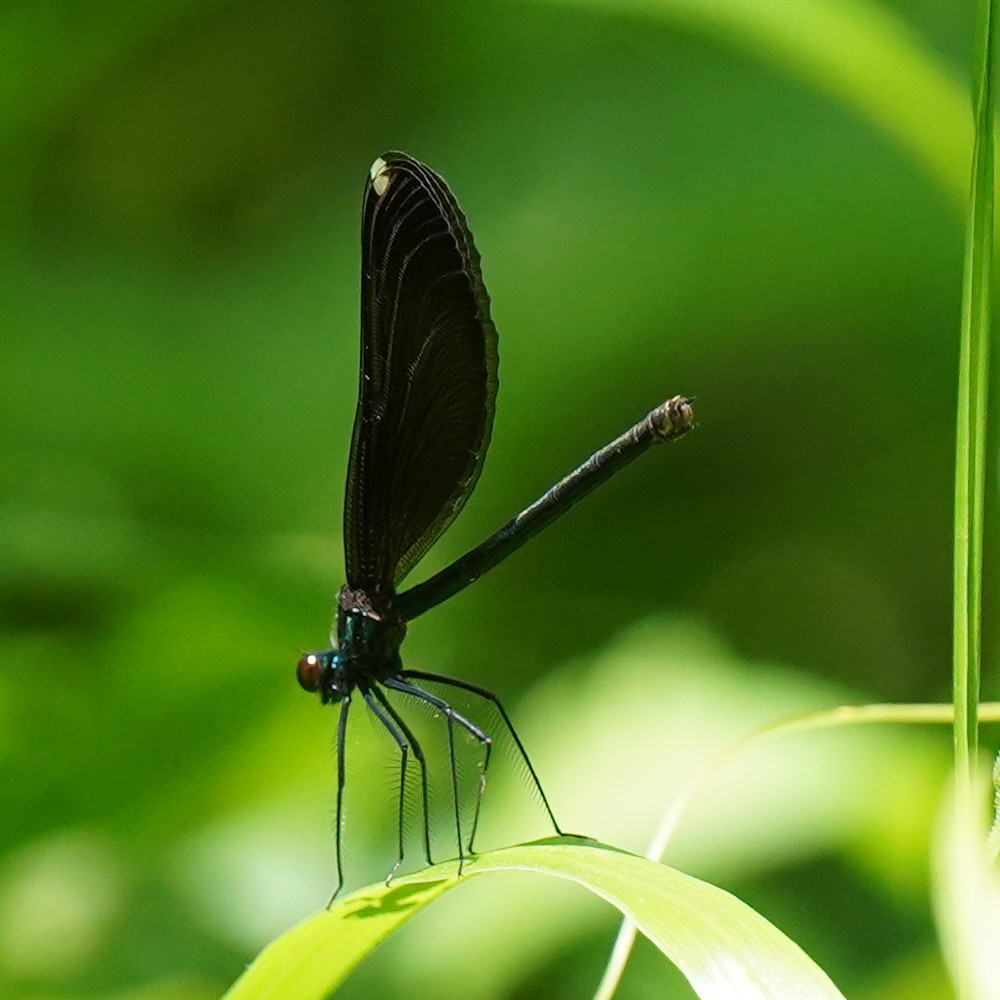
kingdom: Animalia
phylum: Arthropoda
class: Insecta
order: Odonata
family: Calopterygidae
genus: Calopteryx
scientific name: Calopteryx maculata
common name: Ebony jewelwing
